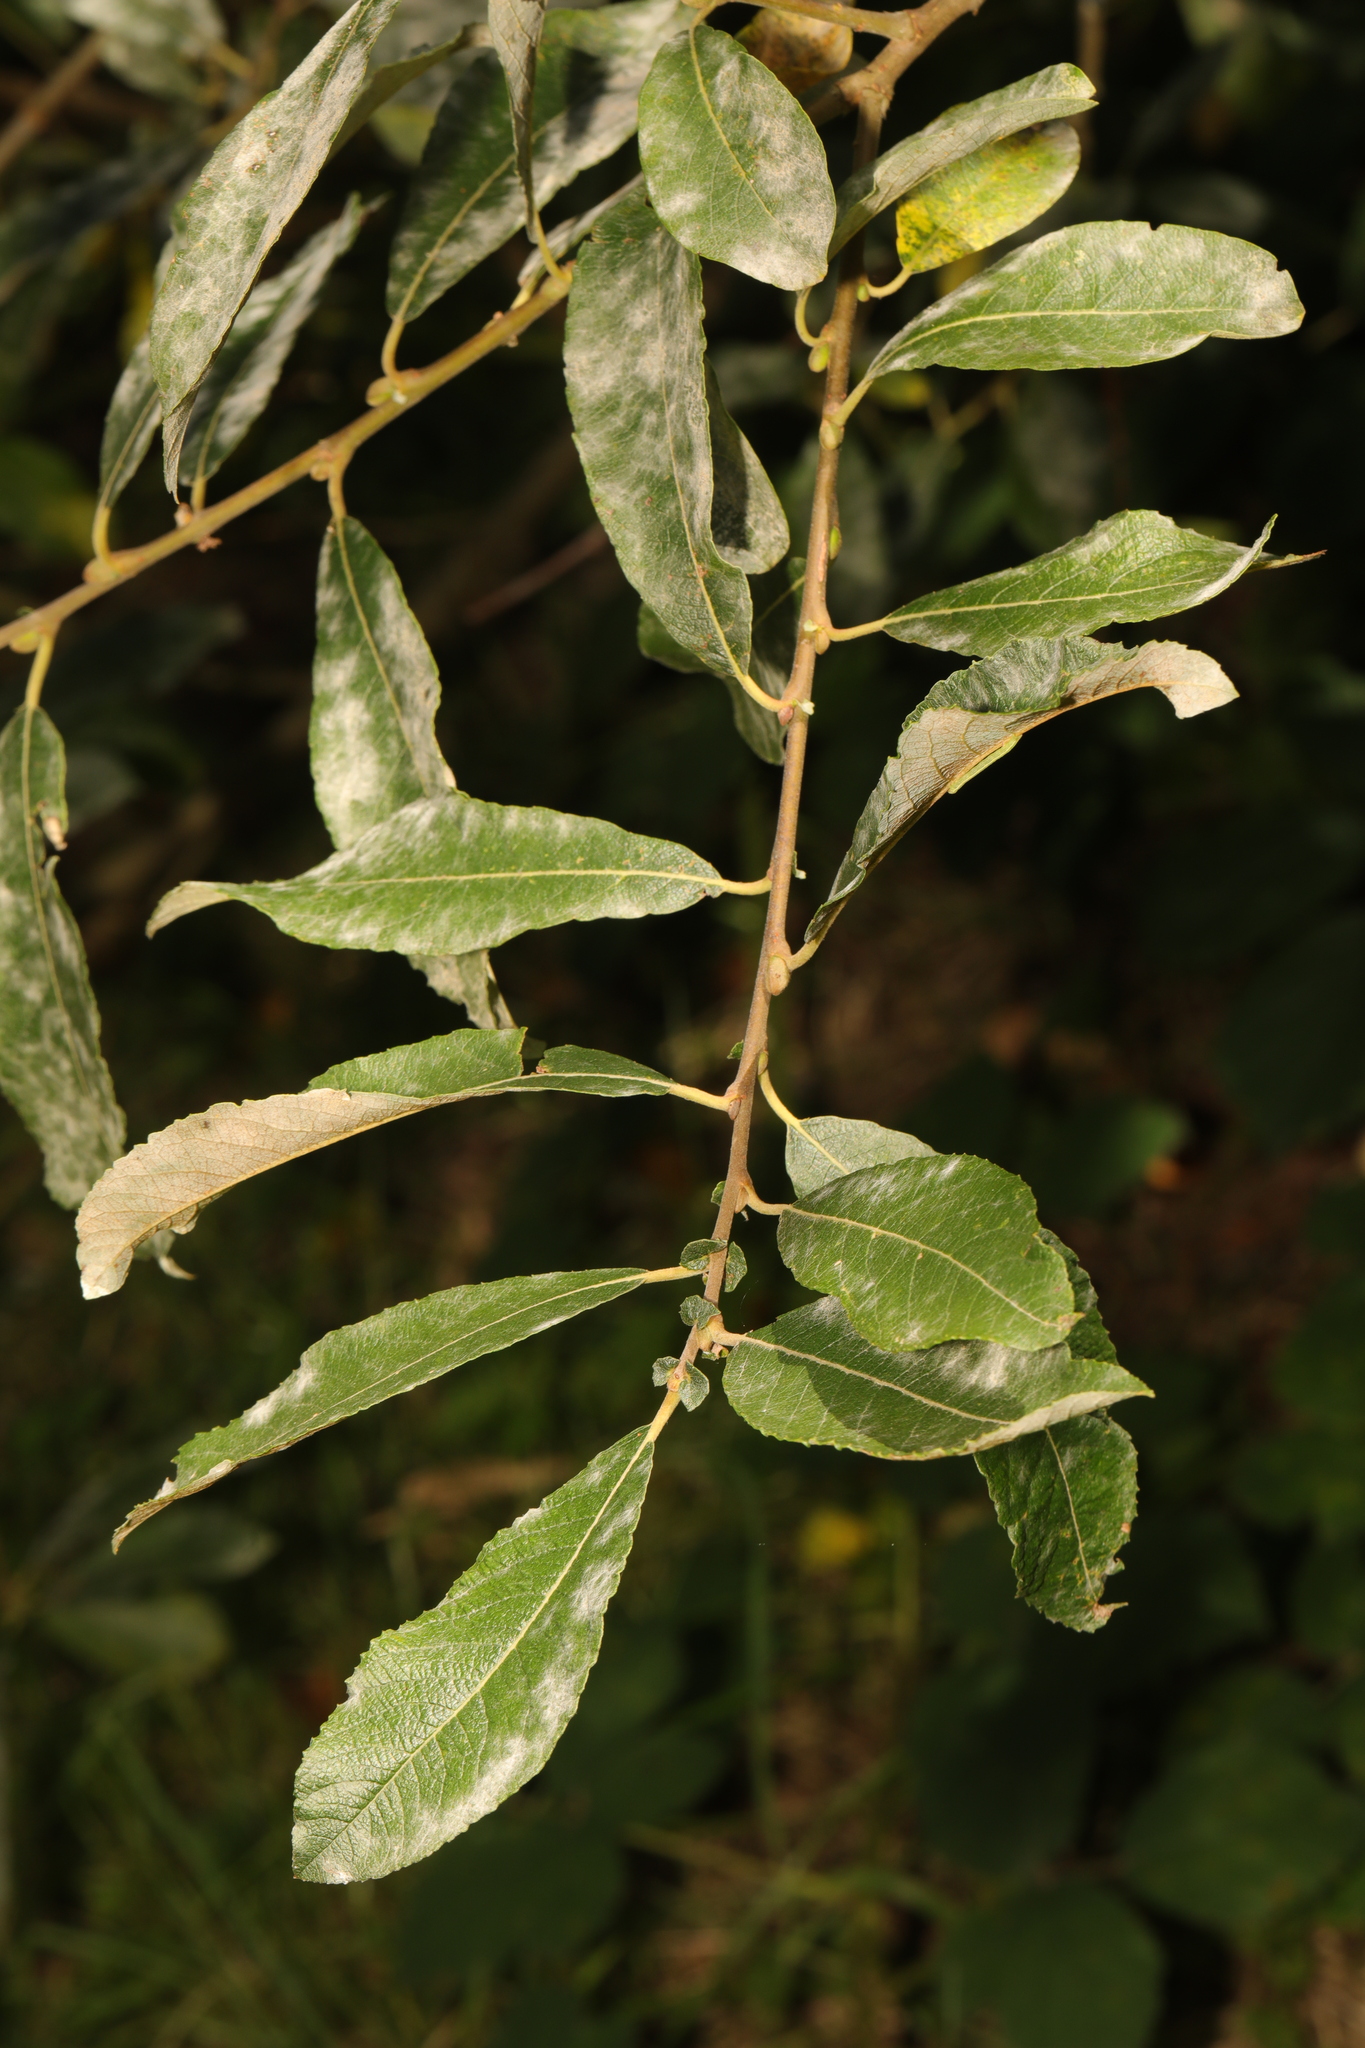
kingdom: Plantae
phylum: Tracheophyta
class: Magnoliopsida
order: Malpighiales
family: Salicaceae
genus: Salix
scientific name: Salix cinerea
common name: Common sallow
